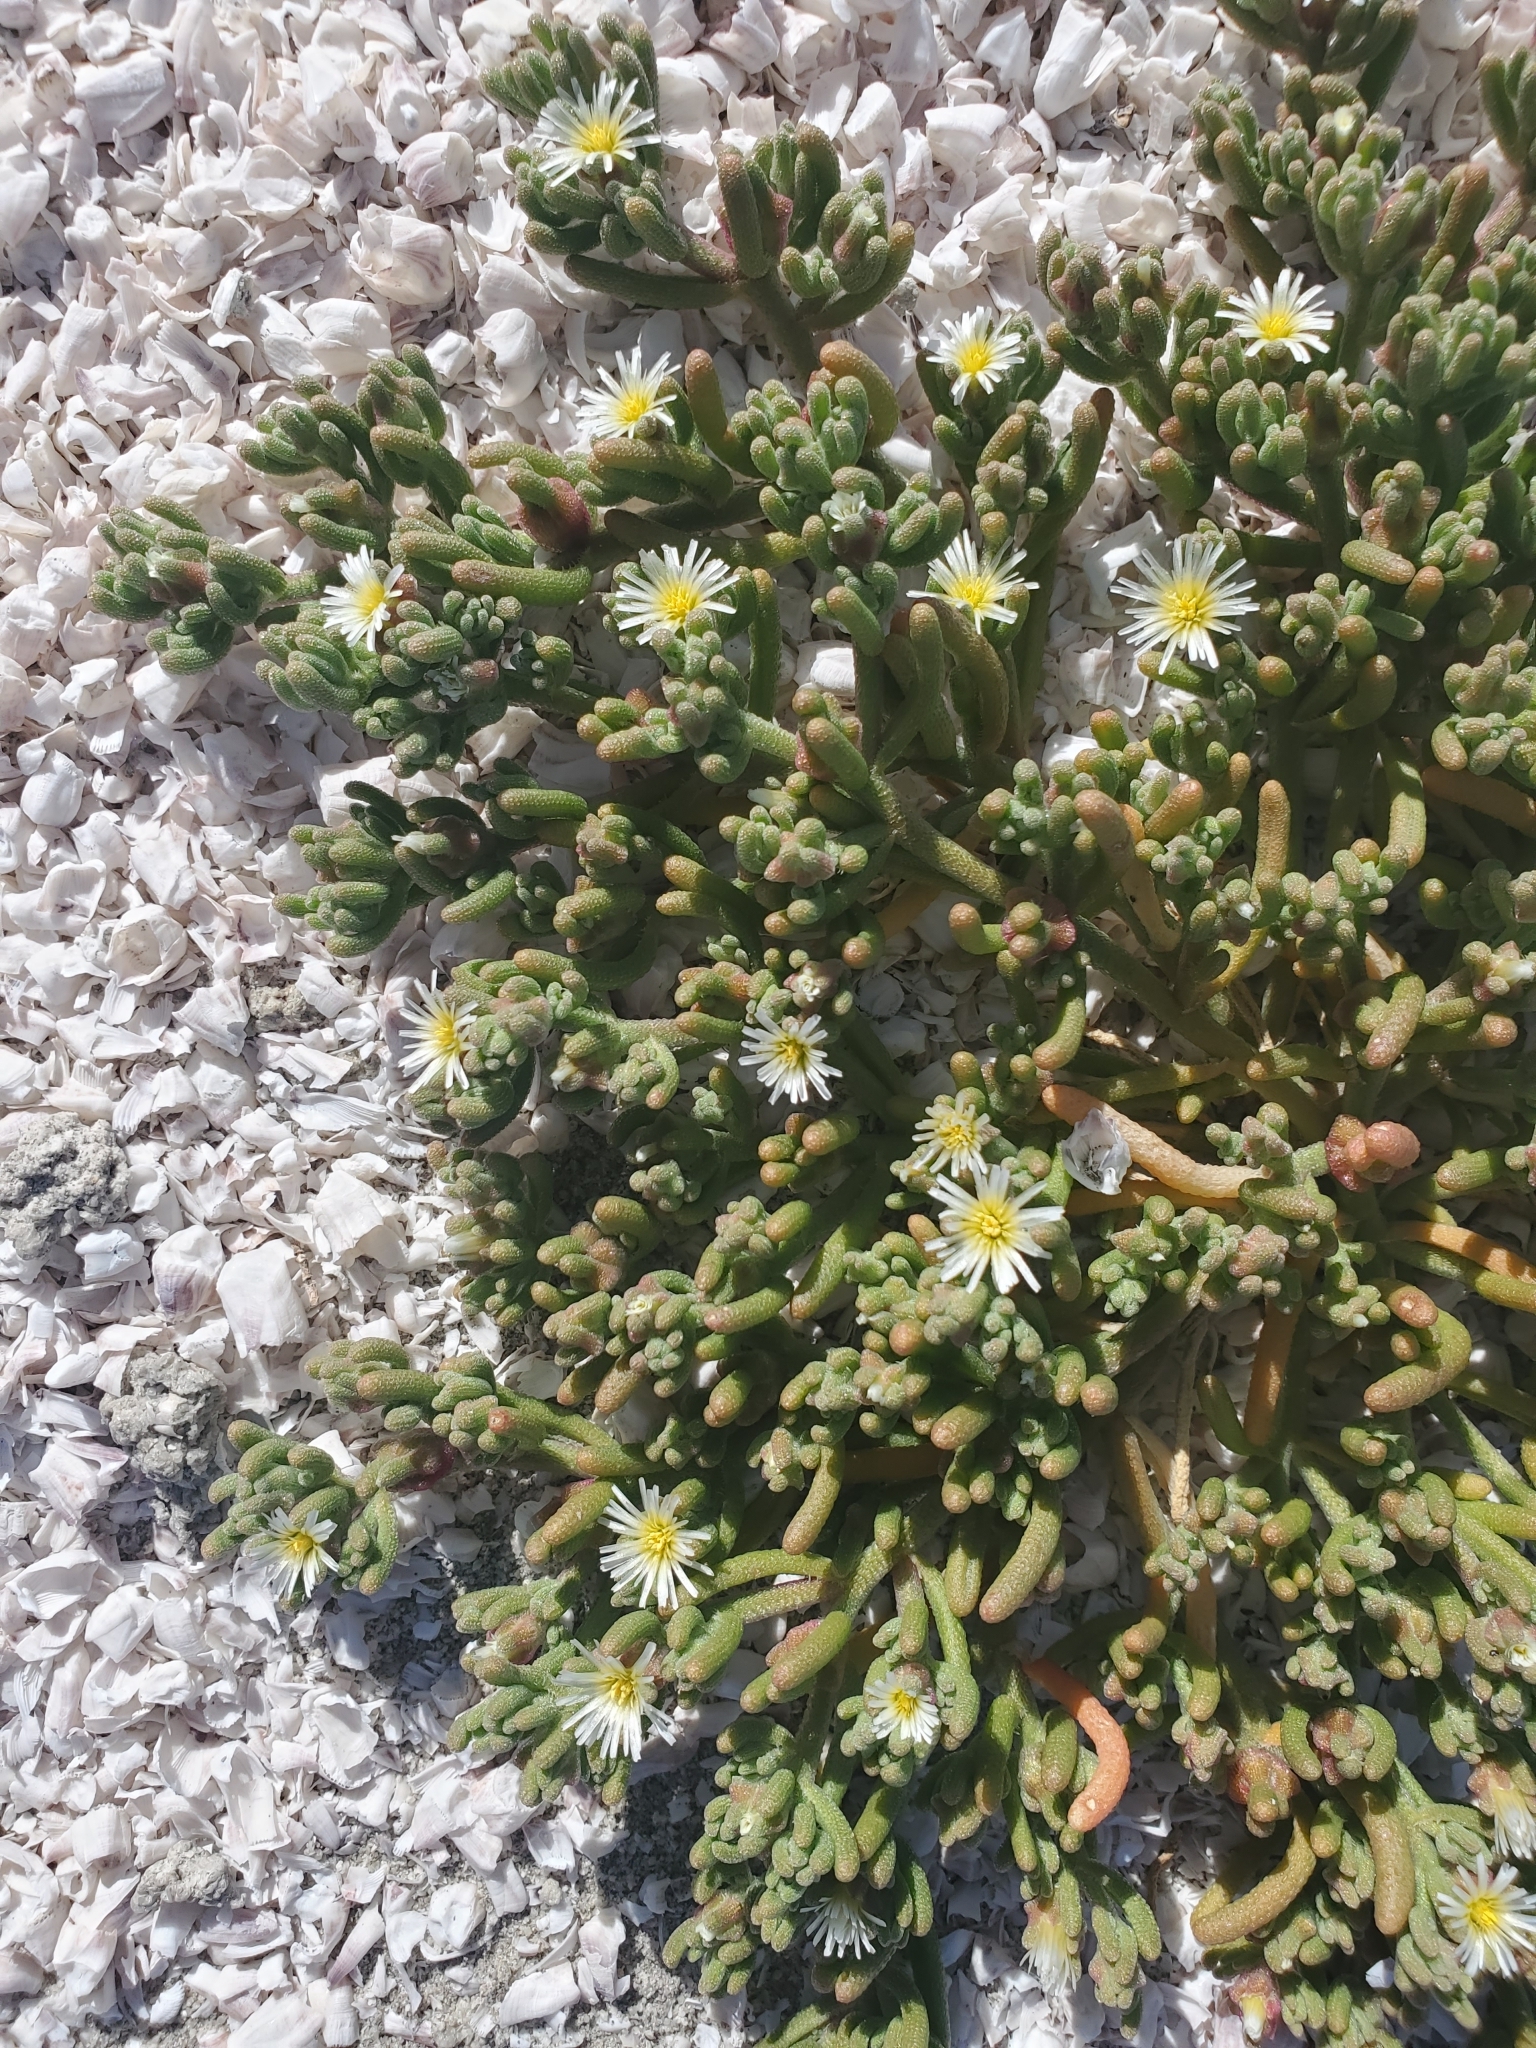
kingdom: Plantae
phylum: Tracheophyta
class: Magnoliopsida
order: Caryophyllales
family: Aizoaceae
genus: Mesembryanthemum
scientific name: Mesembryanthemum nodiflorum
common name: Slenderleaf iceplant
